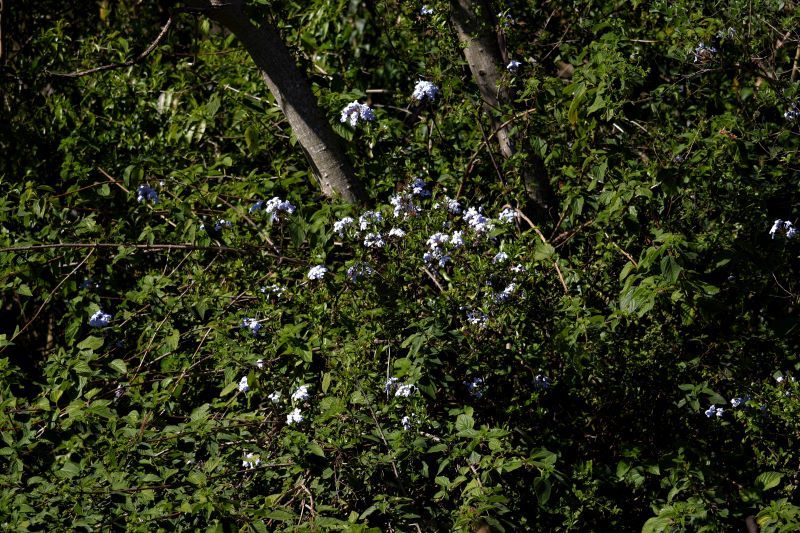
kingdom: Plantae
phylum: Tracheophyta
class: Magnoliopsida
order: Caryophyllales
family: Plumbaginaceae
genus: Plumbago
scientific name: Plumbago auriculata
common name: Cape leadwort
